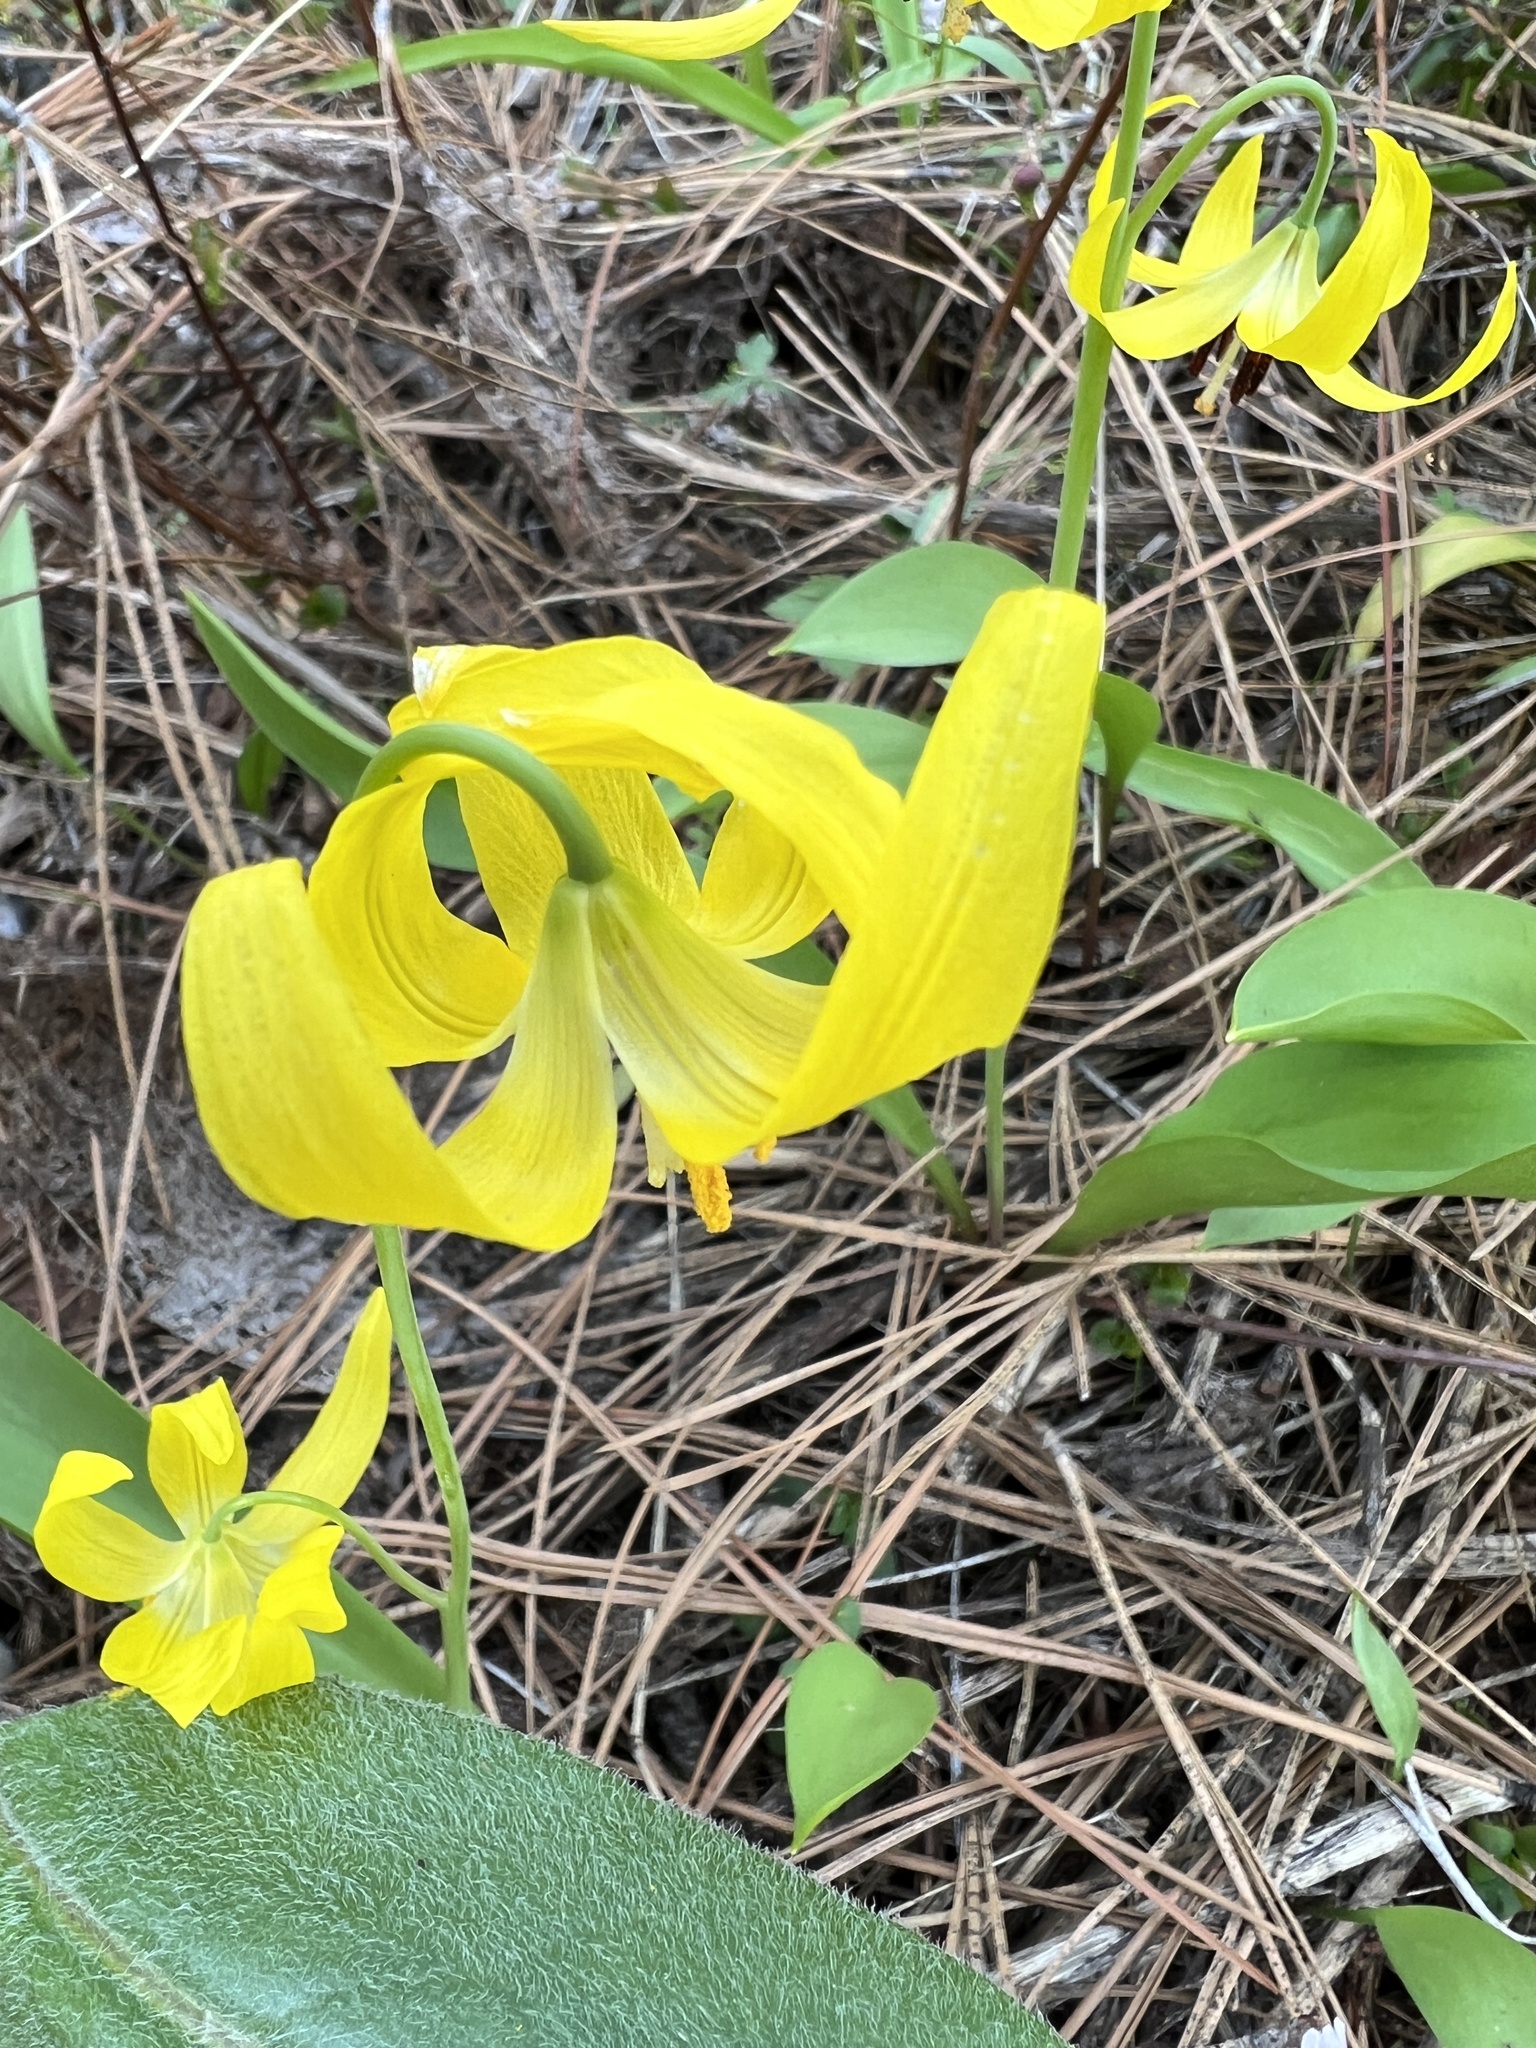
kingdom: Plantae
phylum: Tracheophyta
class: Liliopsida
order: Liliales
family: Liliaceae
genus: Erythronium
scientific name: Erythronium grandiflorum
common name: Avalanche-lily
